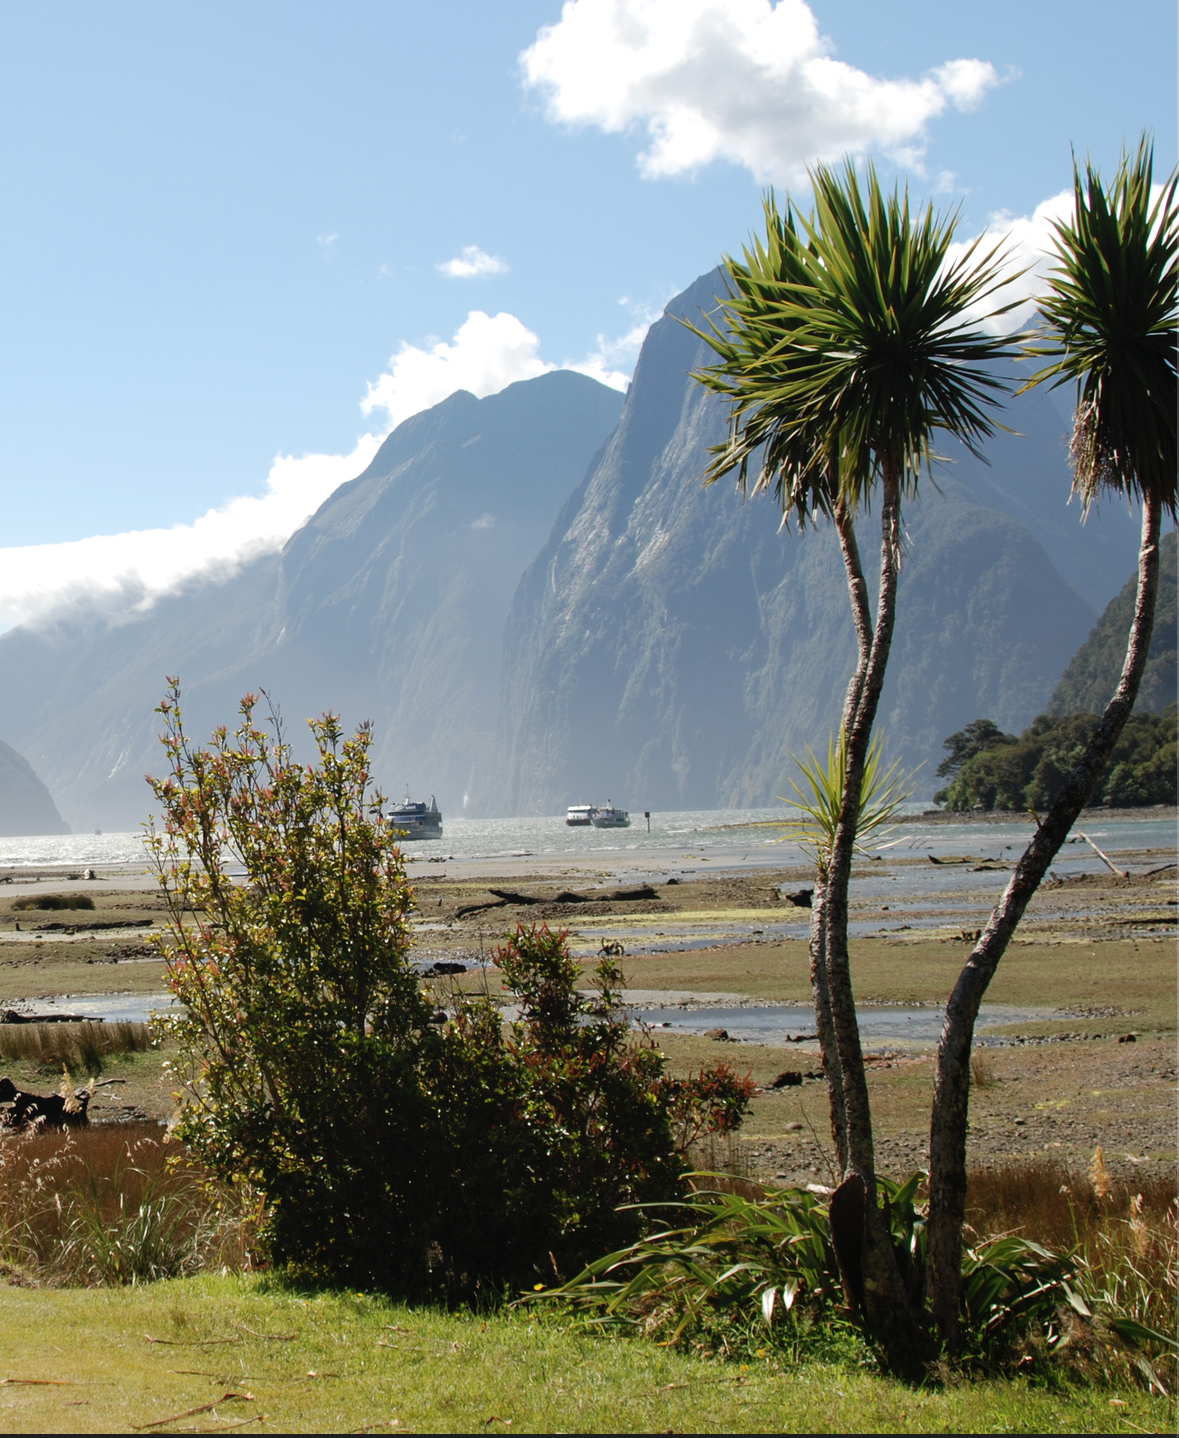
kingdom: Plantae
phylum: Tracheophyta
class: Liliopsida
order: Asparagales
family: Asparagaceae
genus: Cordyline
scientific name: Cordyline australis
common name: Cabbage-palm
